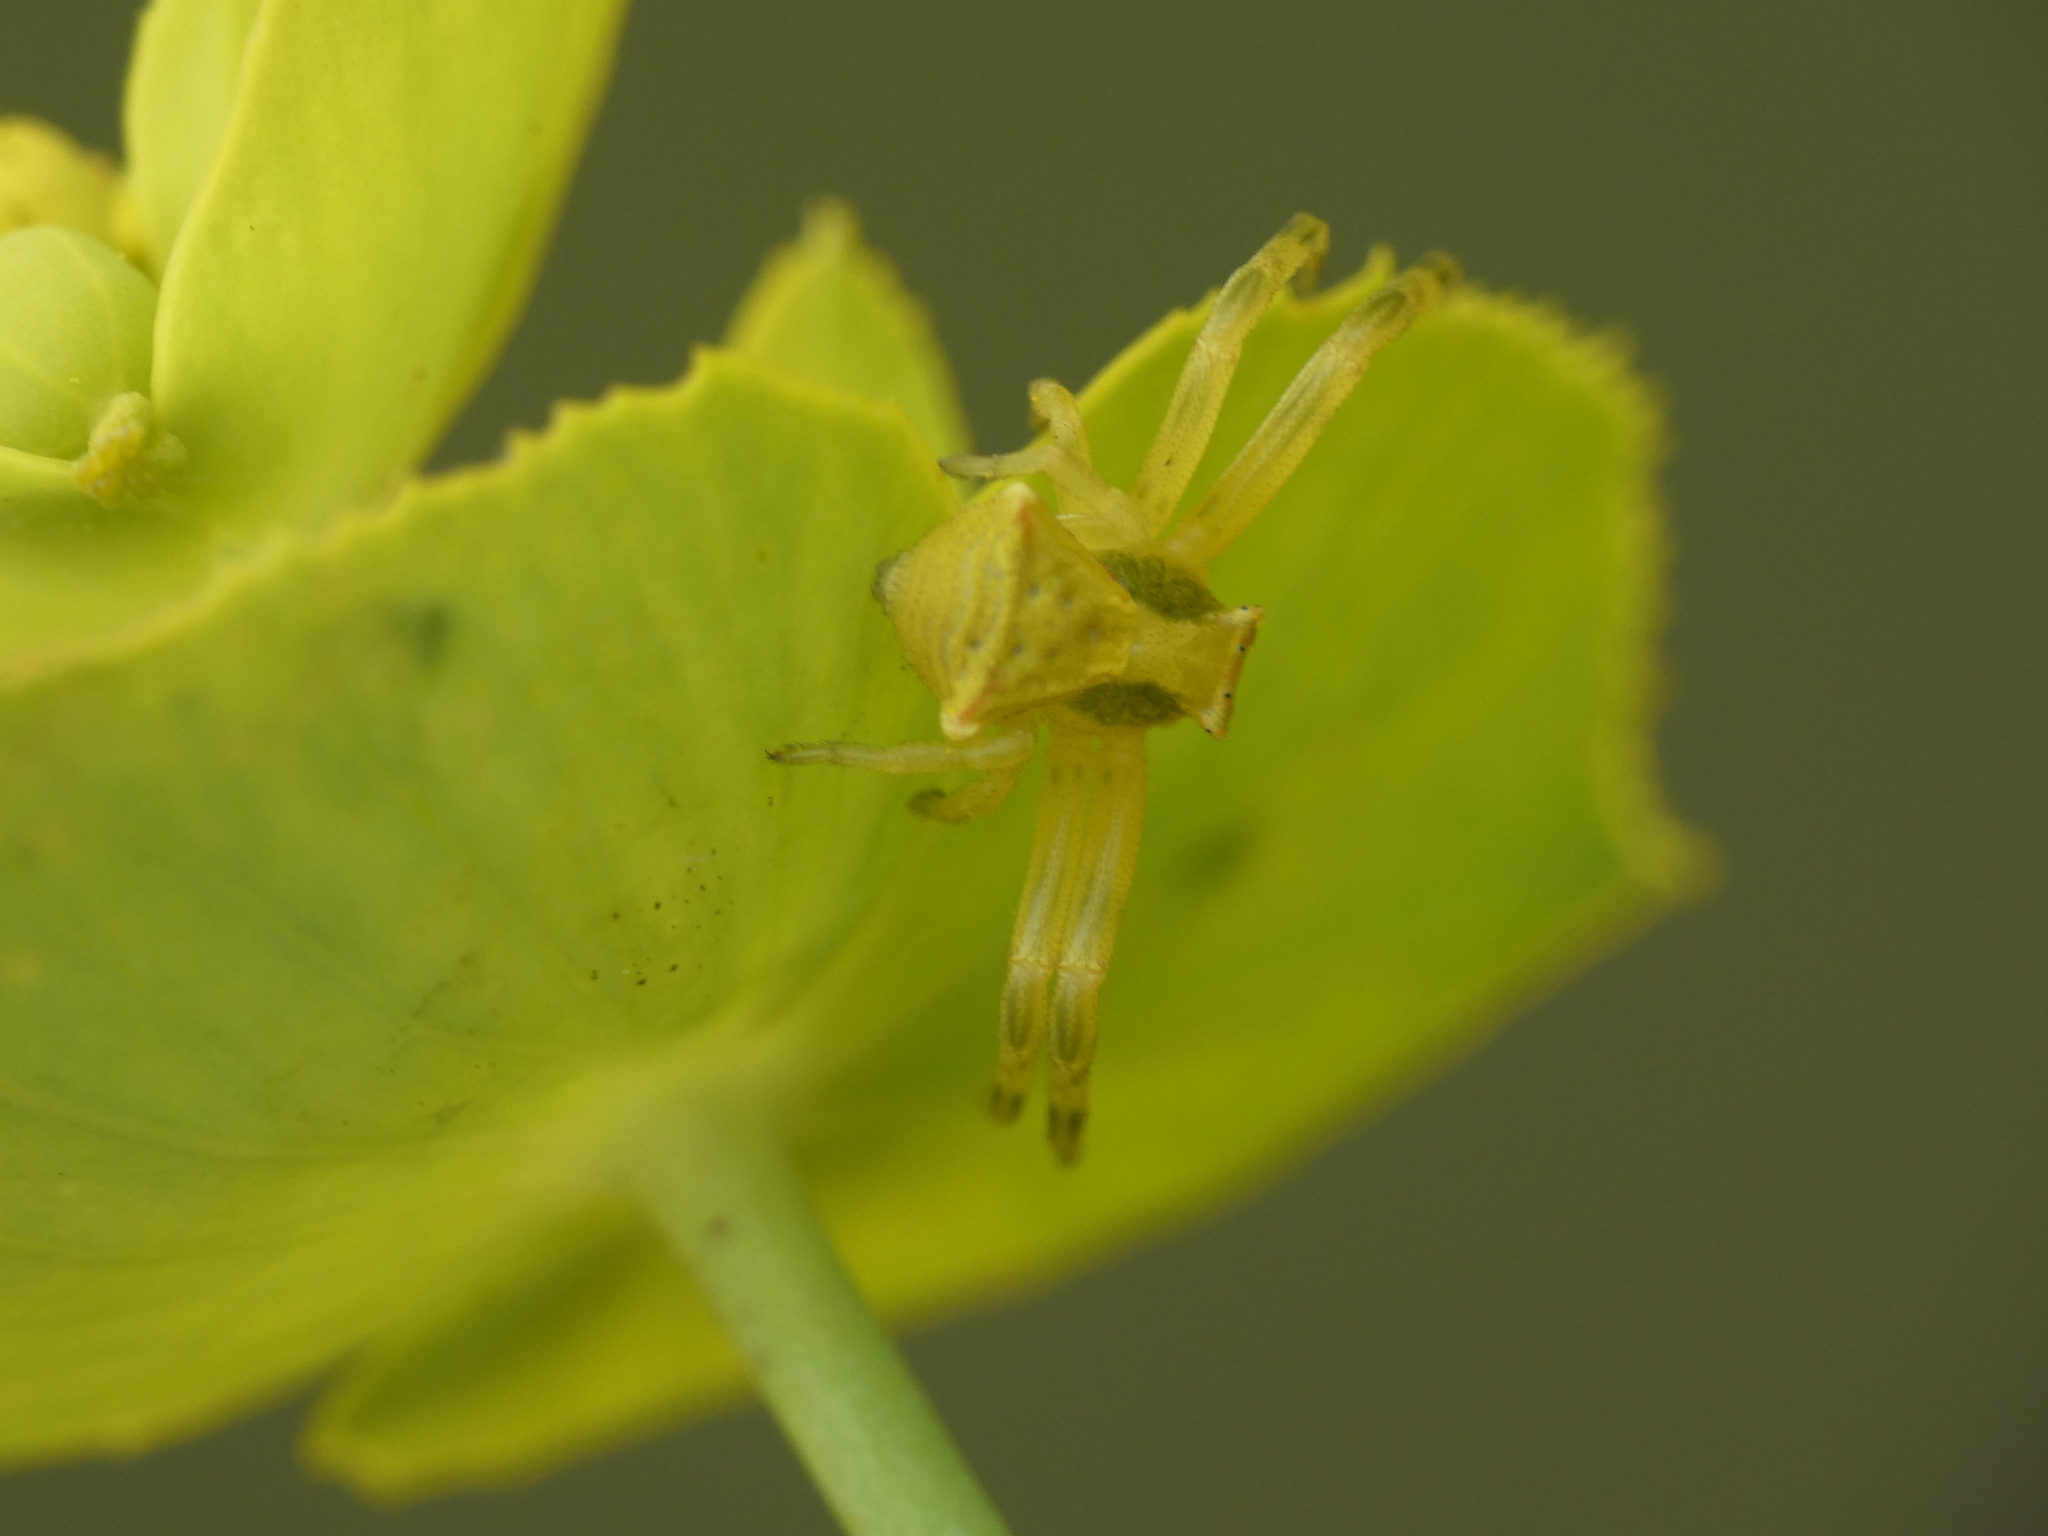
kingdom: Animalia
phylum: Arthropoda
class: Arachnida
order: Araneae
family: Thomisidae
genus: Thomisus
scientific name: Thomisus onustus
